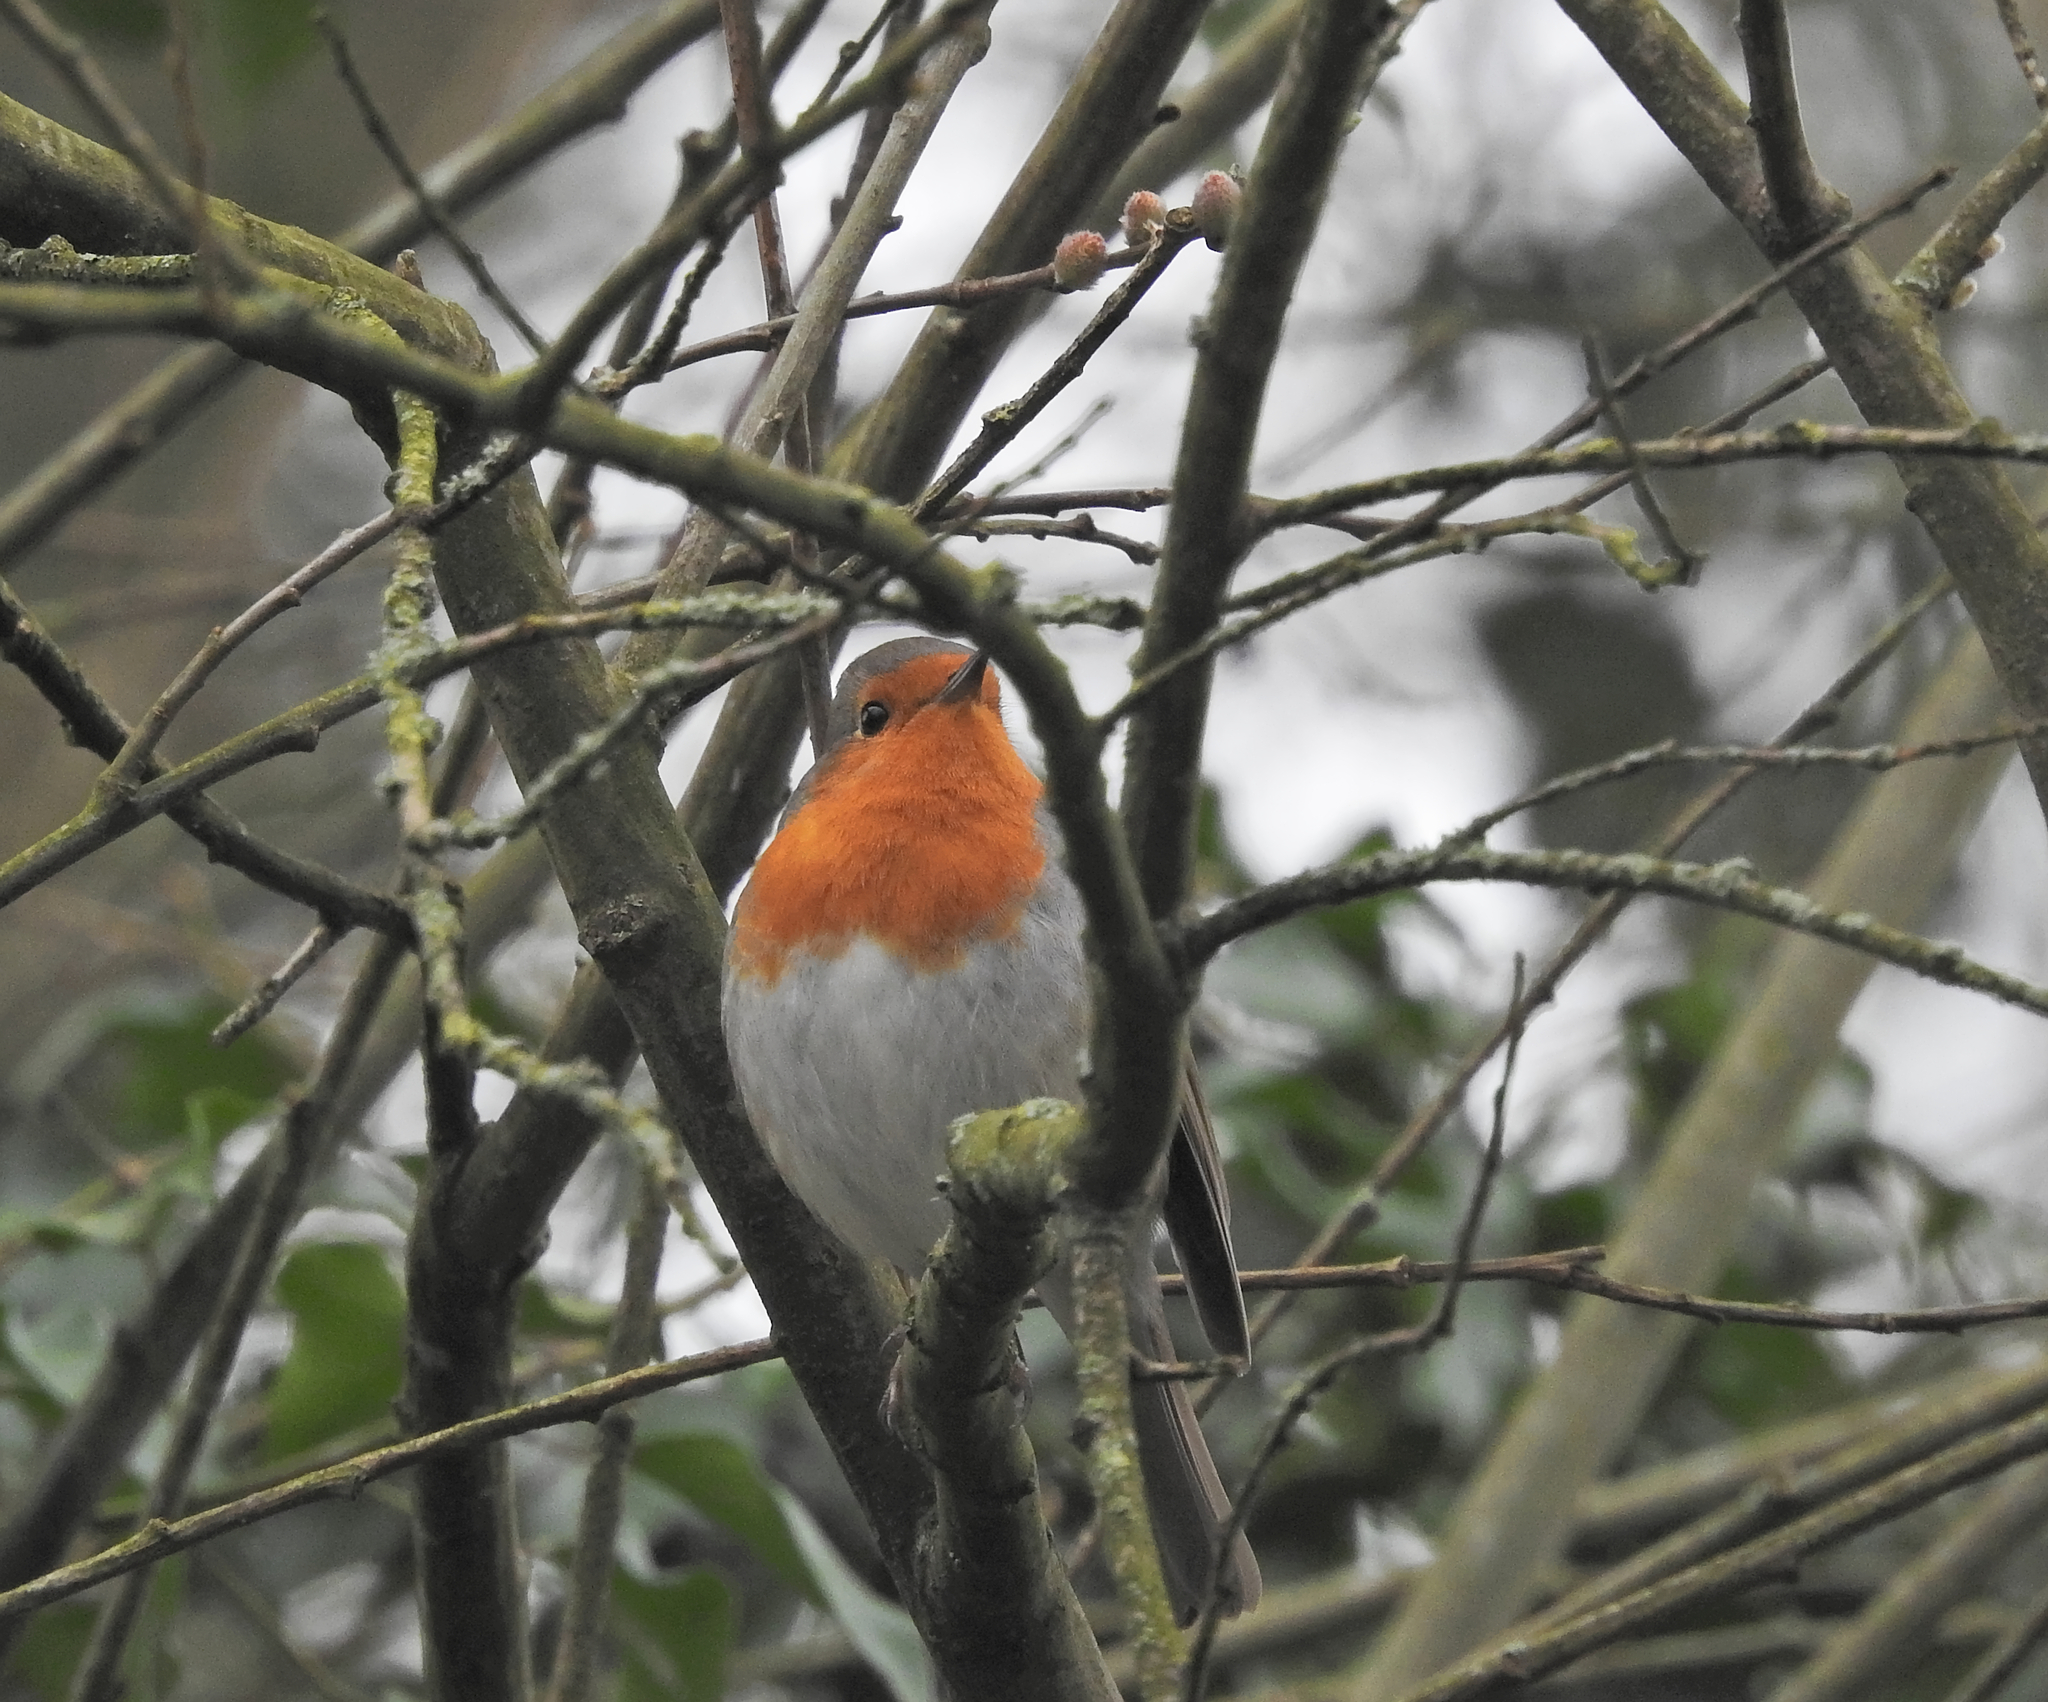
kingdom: Animalia
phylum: Chordata
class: Aves
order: Passeriformes
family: Muscicapidae
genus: Erithacus
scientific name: Erithacus rubecula
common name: European robin
